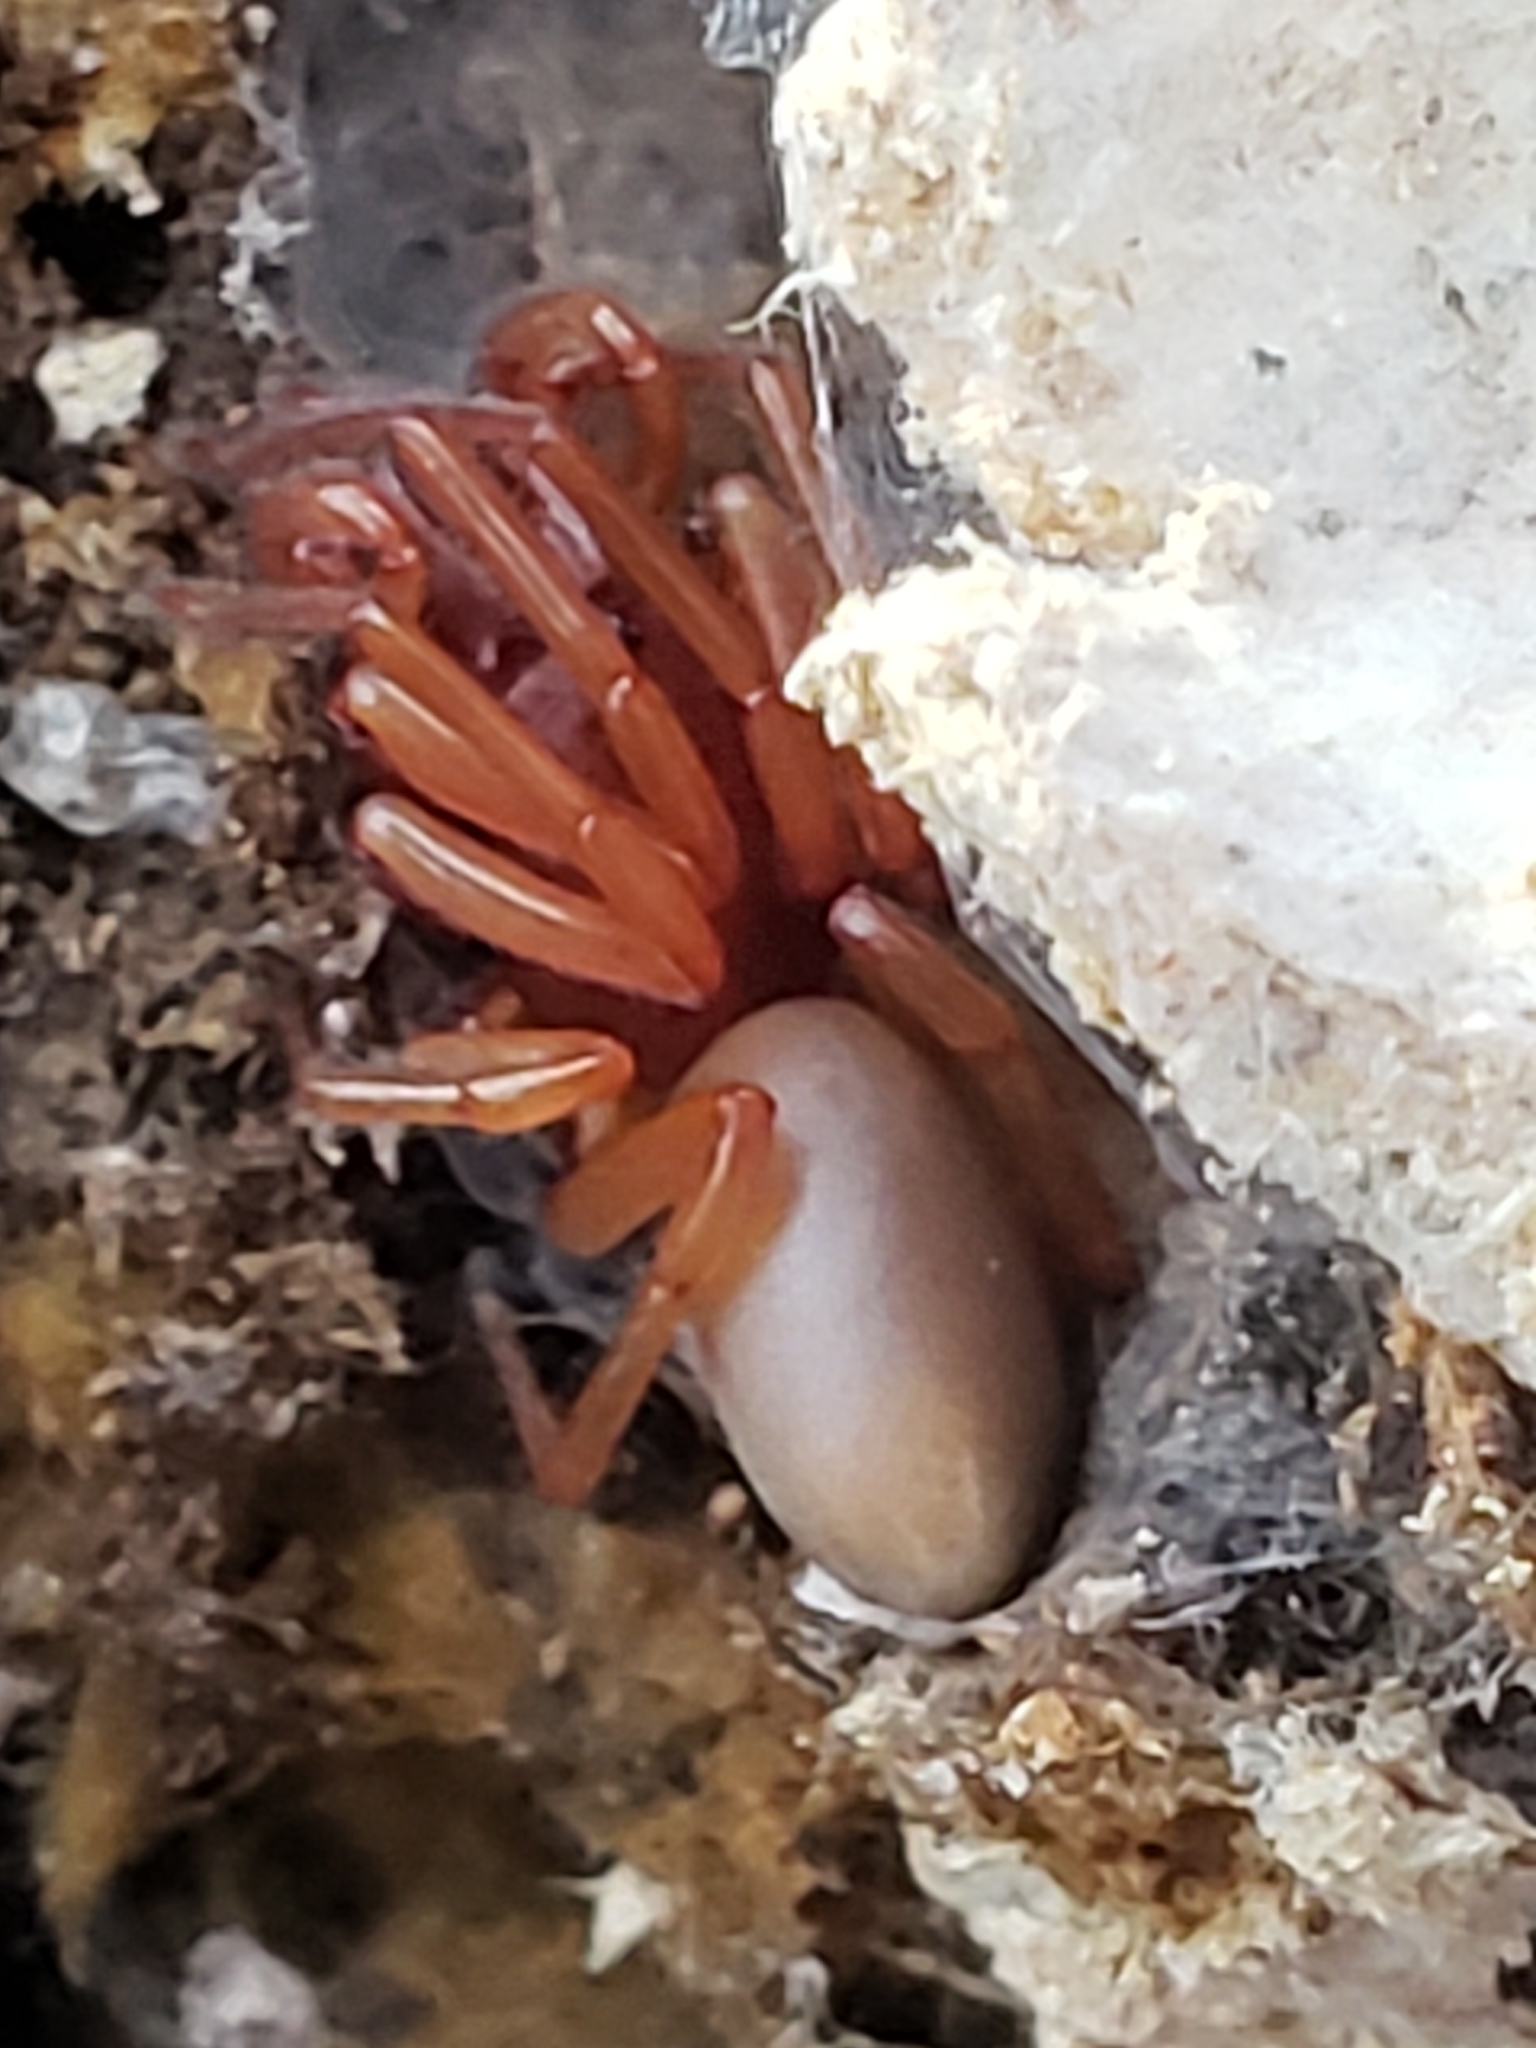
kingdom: Animalia
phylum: Arthropoda
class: Arachnida
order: Araneae
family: Dysderidae
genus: Dysdera
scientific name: Dysdera crocata
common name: Woodlouse spider
